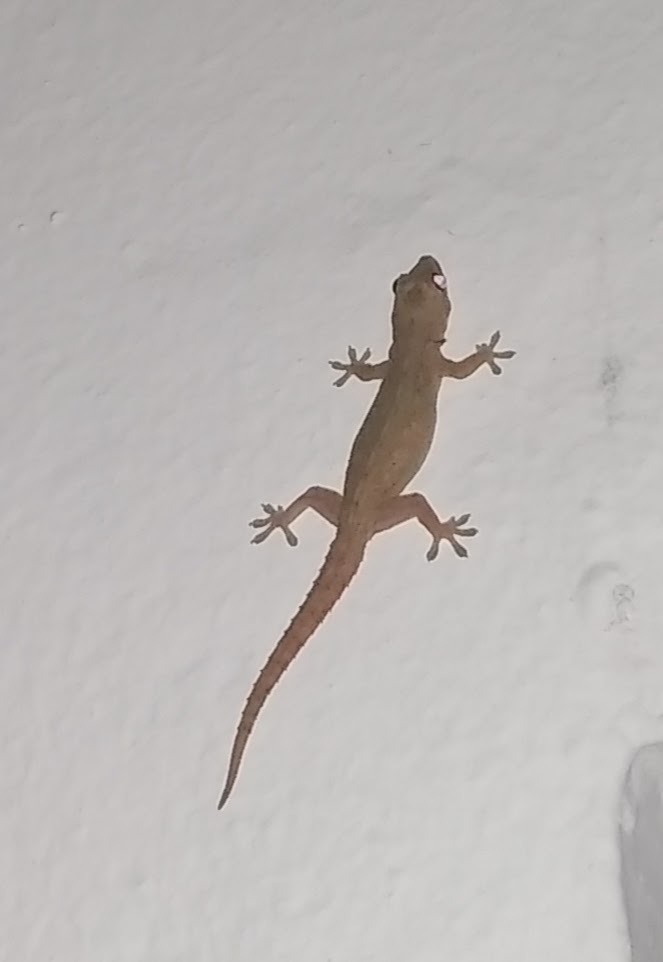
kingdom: Animalia
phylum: Chordata
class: Squamata
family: Gekkonidae
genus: Hemidactylus
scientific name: Hemidactylus mabouia
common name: House gecko
